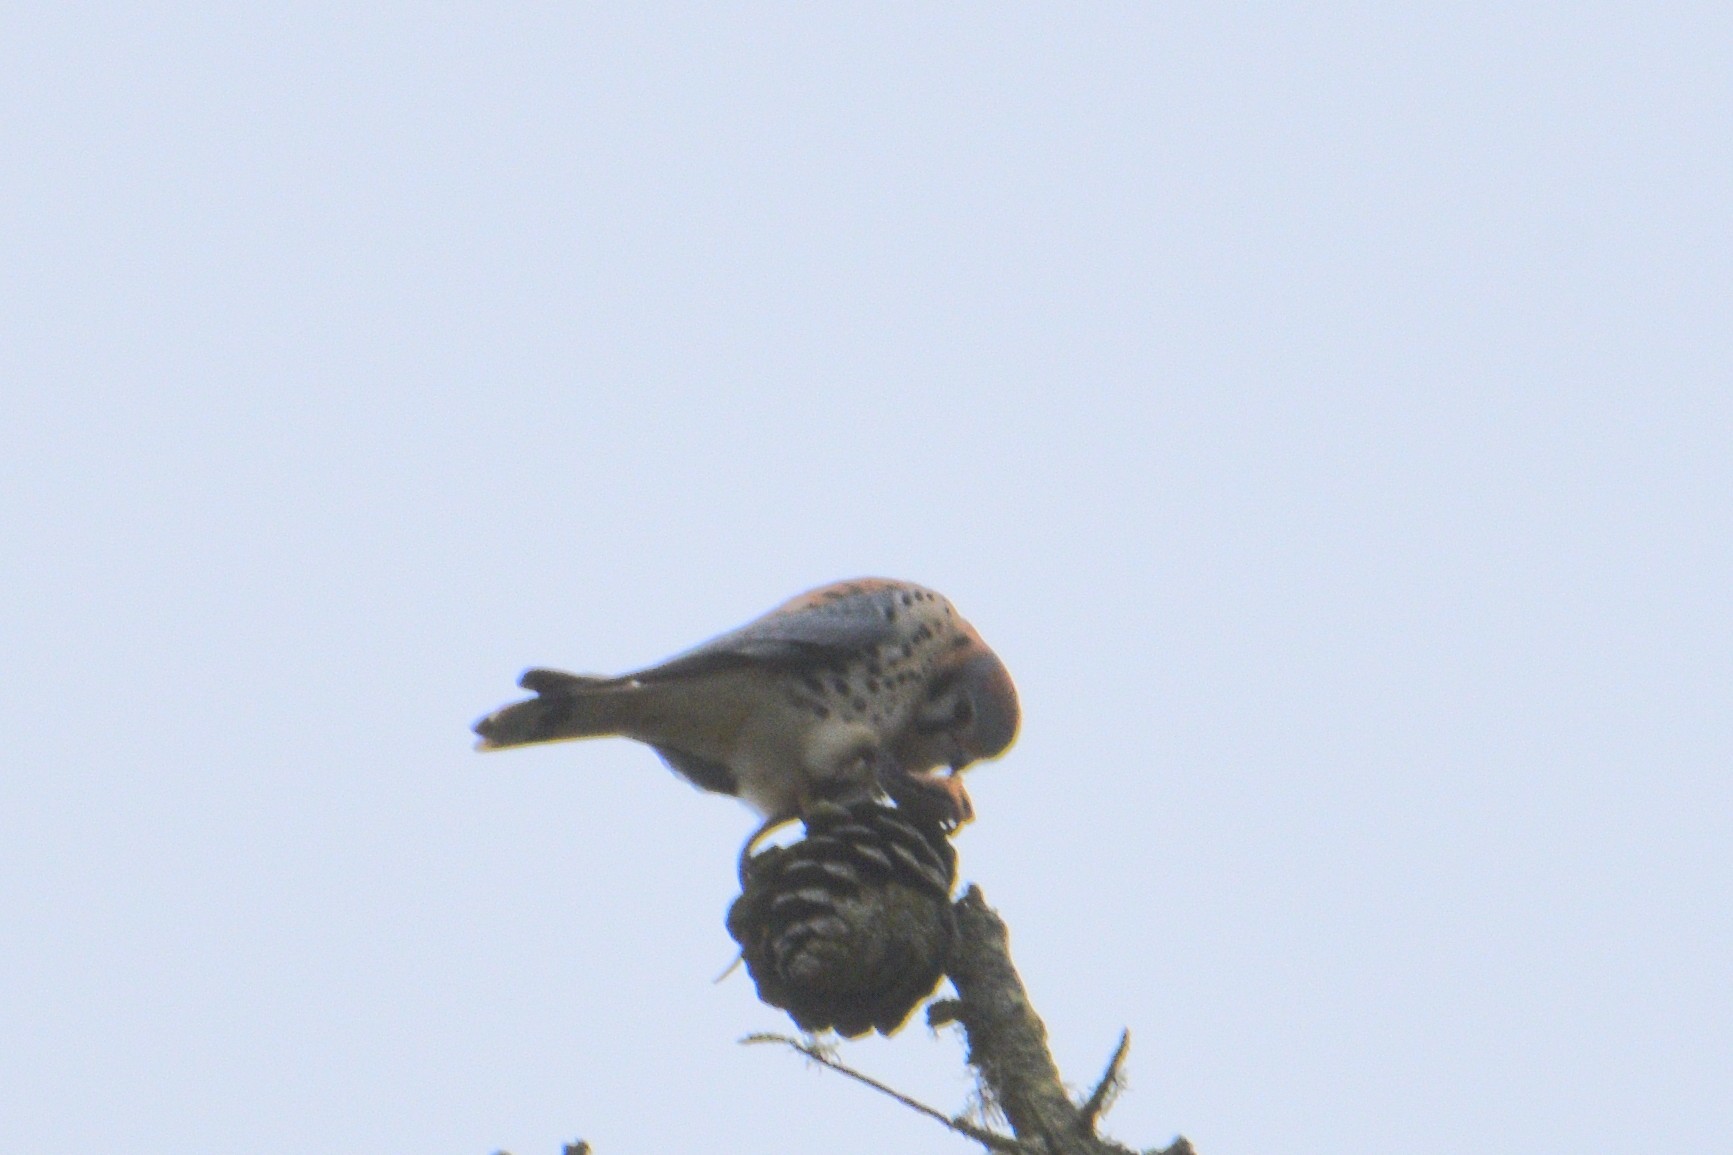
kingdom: Animalia
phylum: Chordata
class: Aves
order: Falconiformes
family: Falconidae
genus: Falco
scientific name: Falco sparverius
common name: American kestrel
